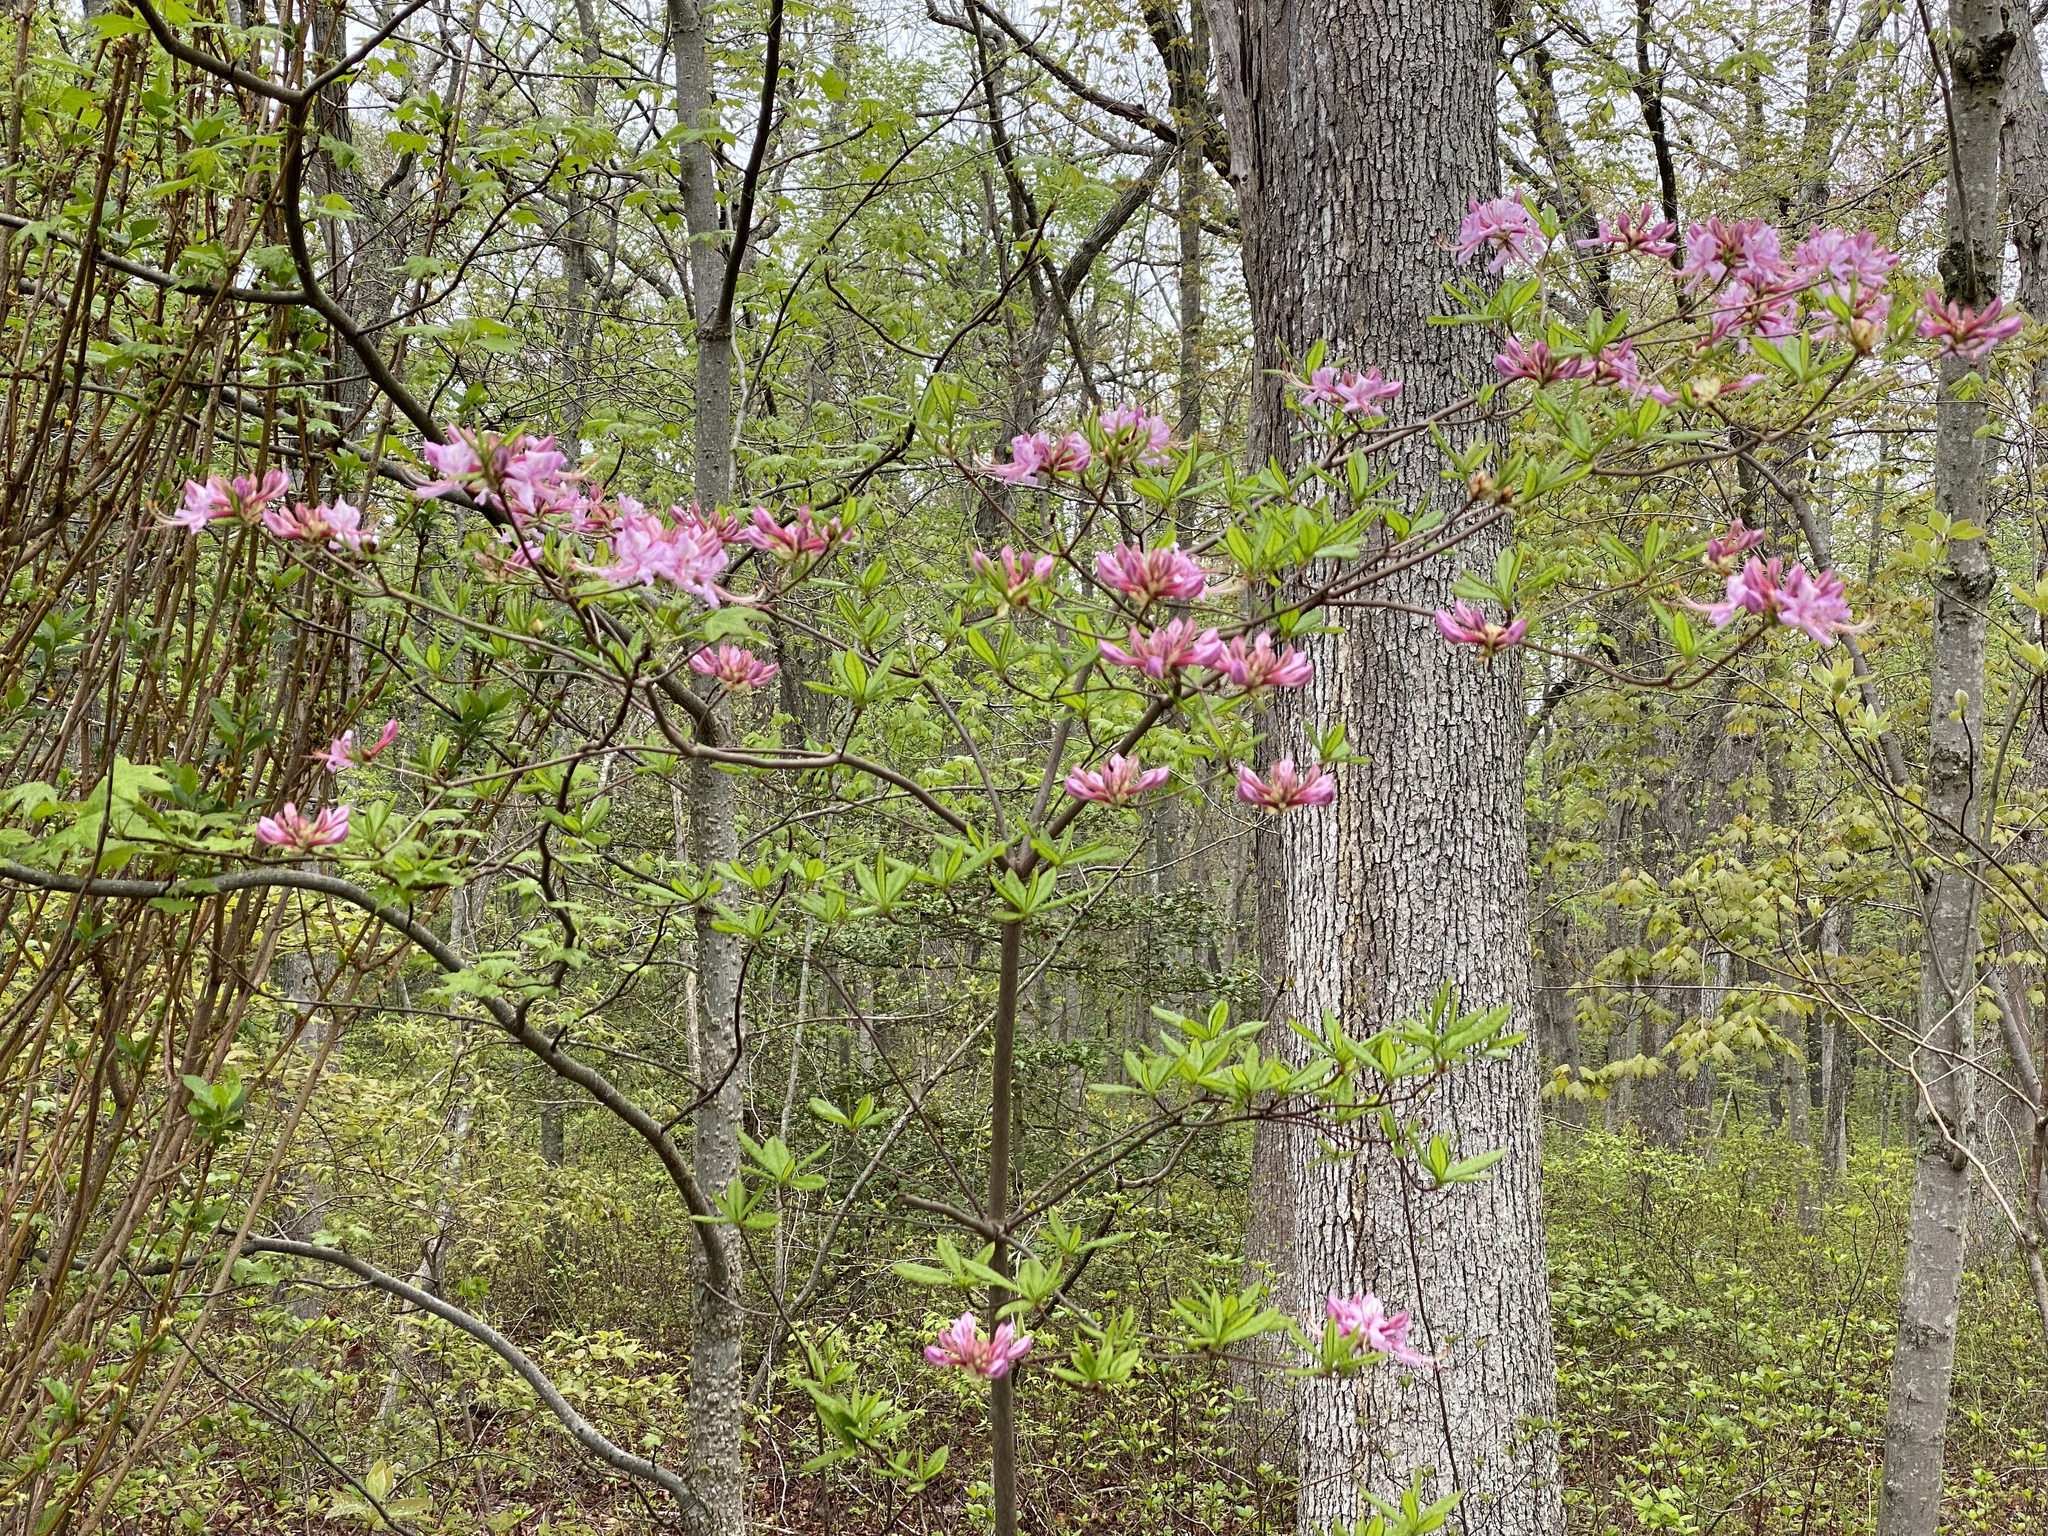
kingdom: Plantae
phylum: Tracheophyta
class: Magnoliopsida
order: Ericales
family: Ericaceae
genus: Rhododendron
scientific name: Rhododendron periclymenoides
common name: Election-pink
